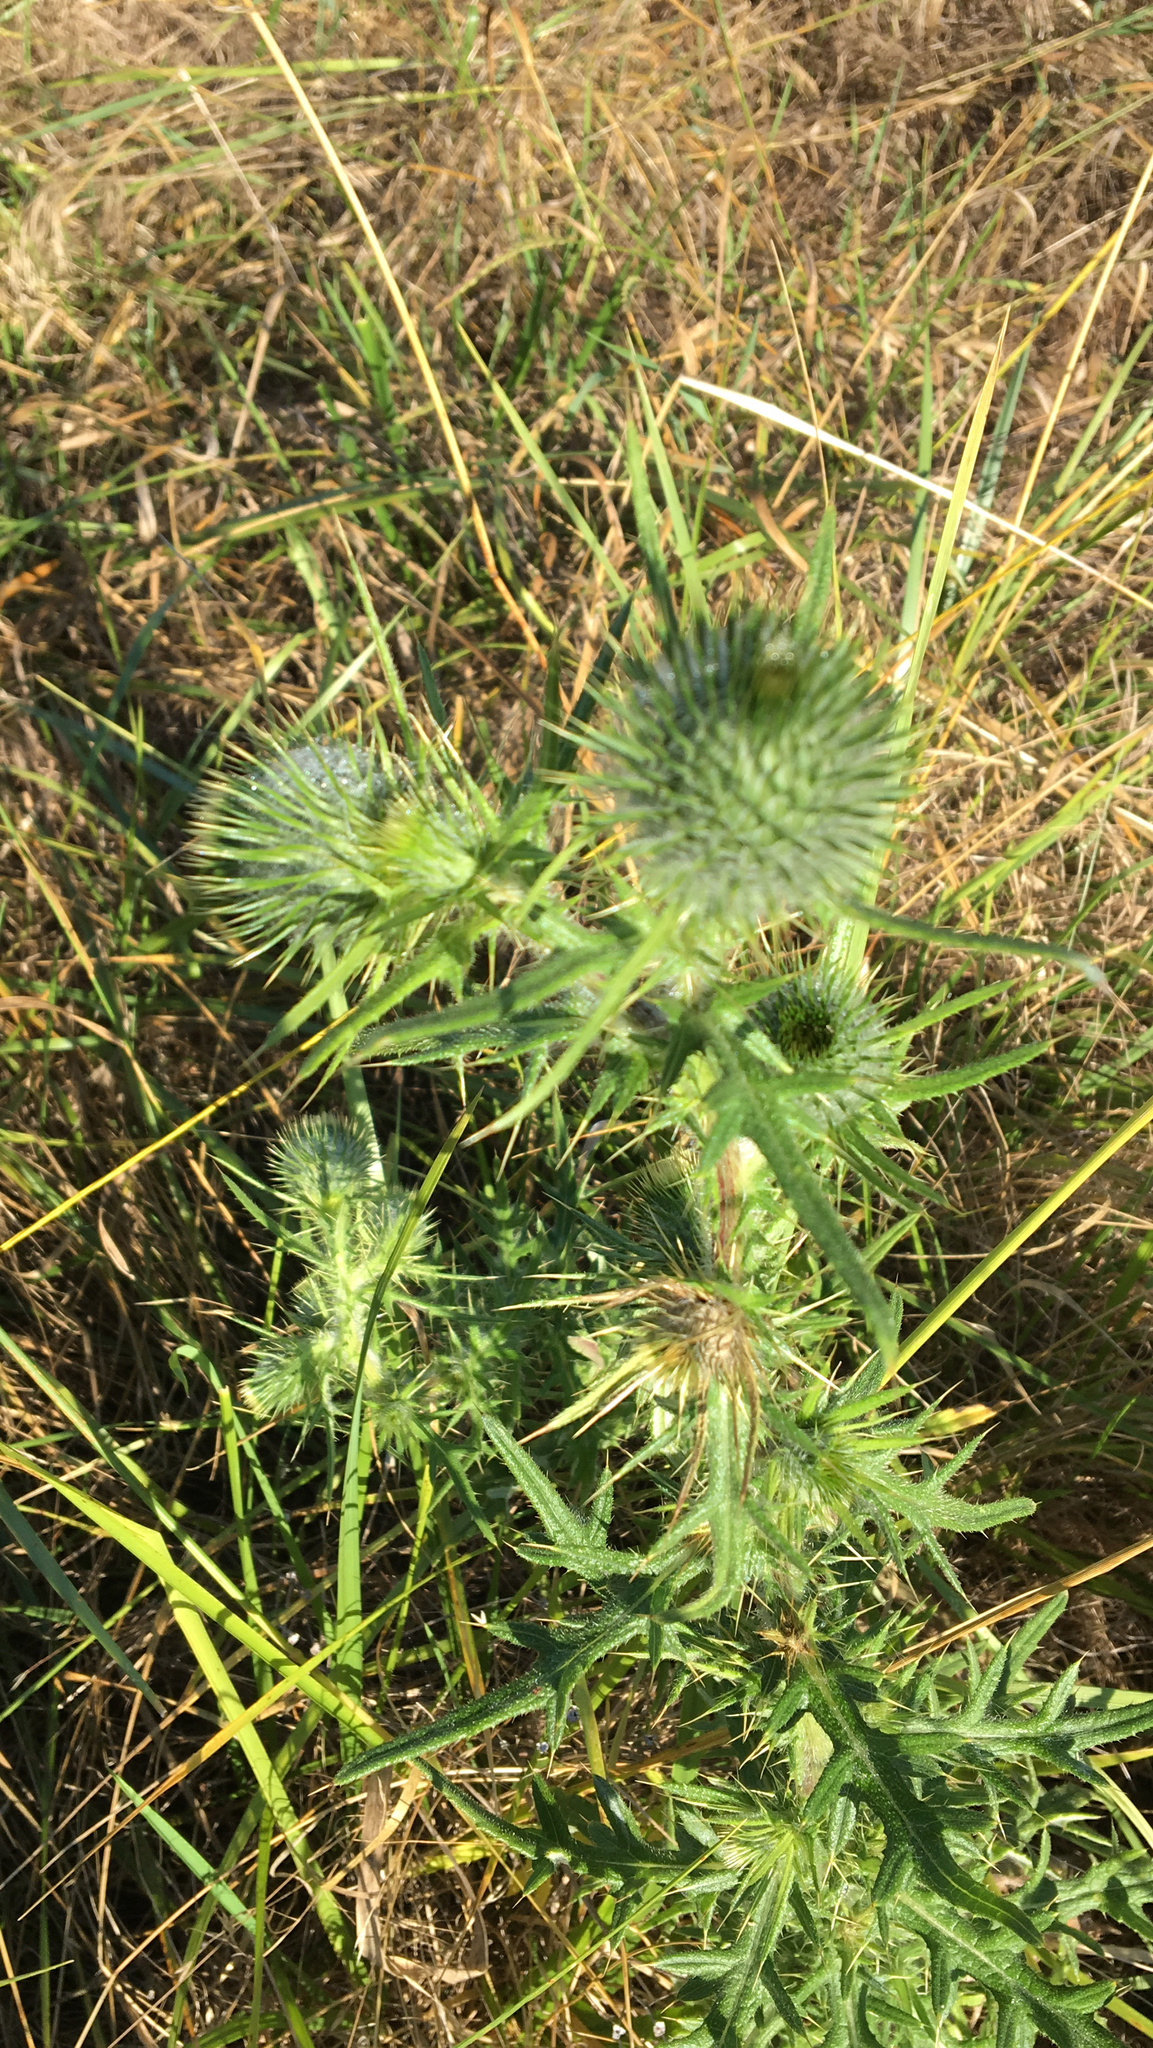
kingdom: Plantae
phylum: Tracheophyta
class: Magnoliopsida
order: Asterales
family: Asteraceae
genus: Cirsium
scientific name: Cirsium vulgare
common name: Bull thistle
